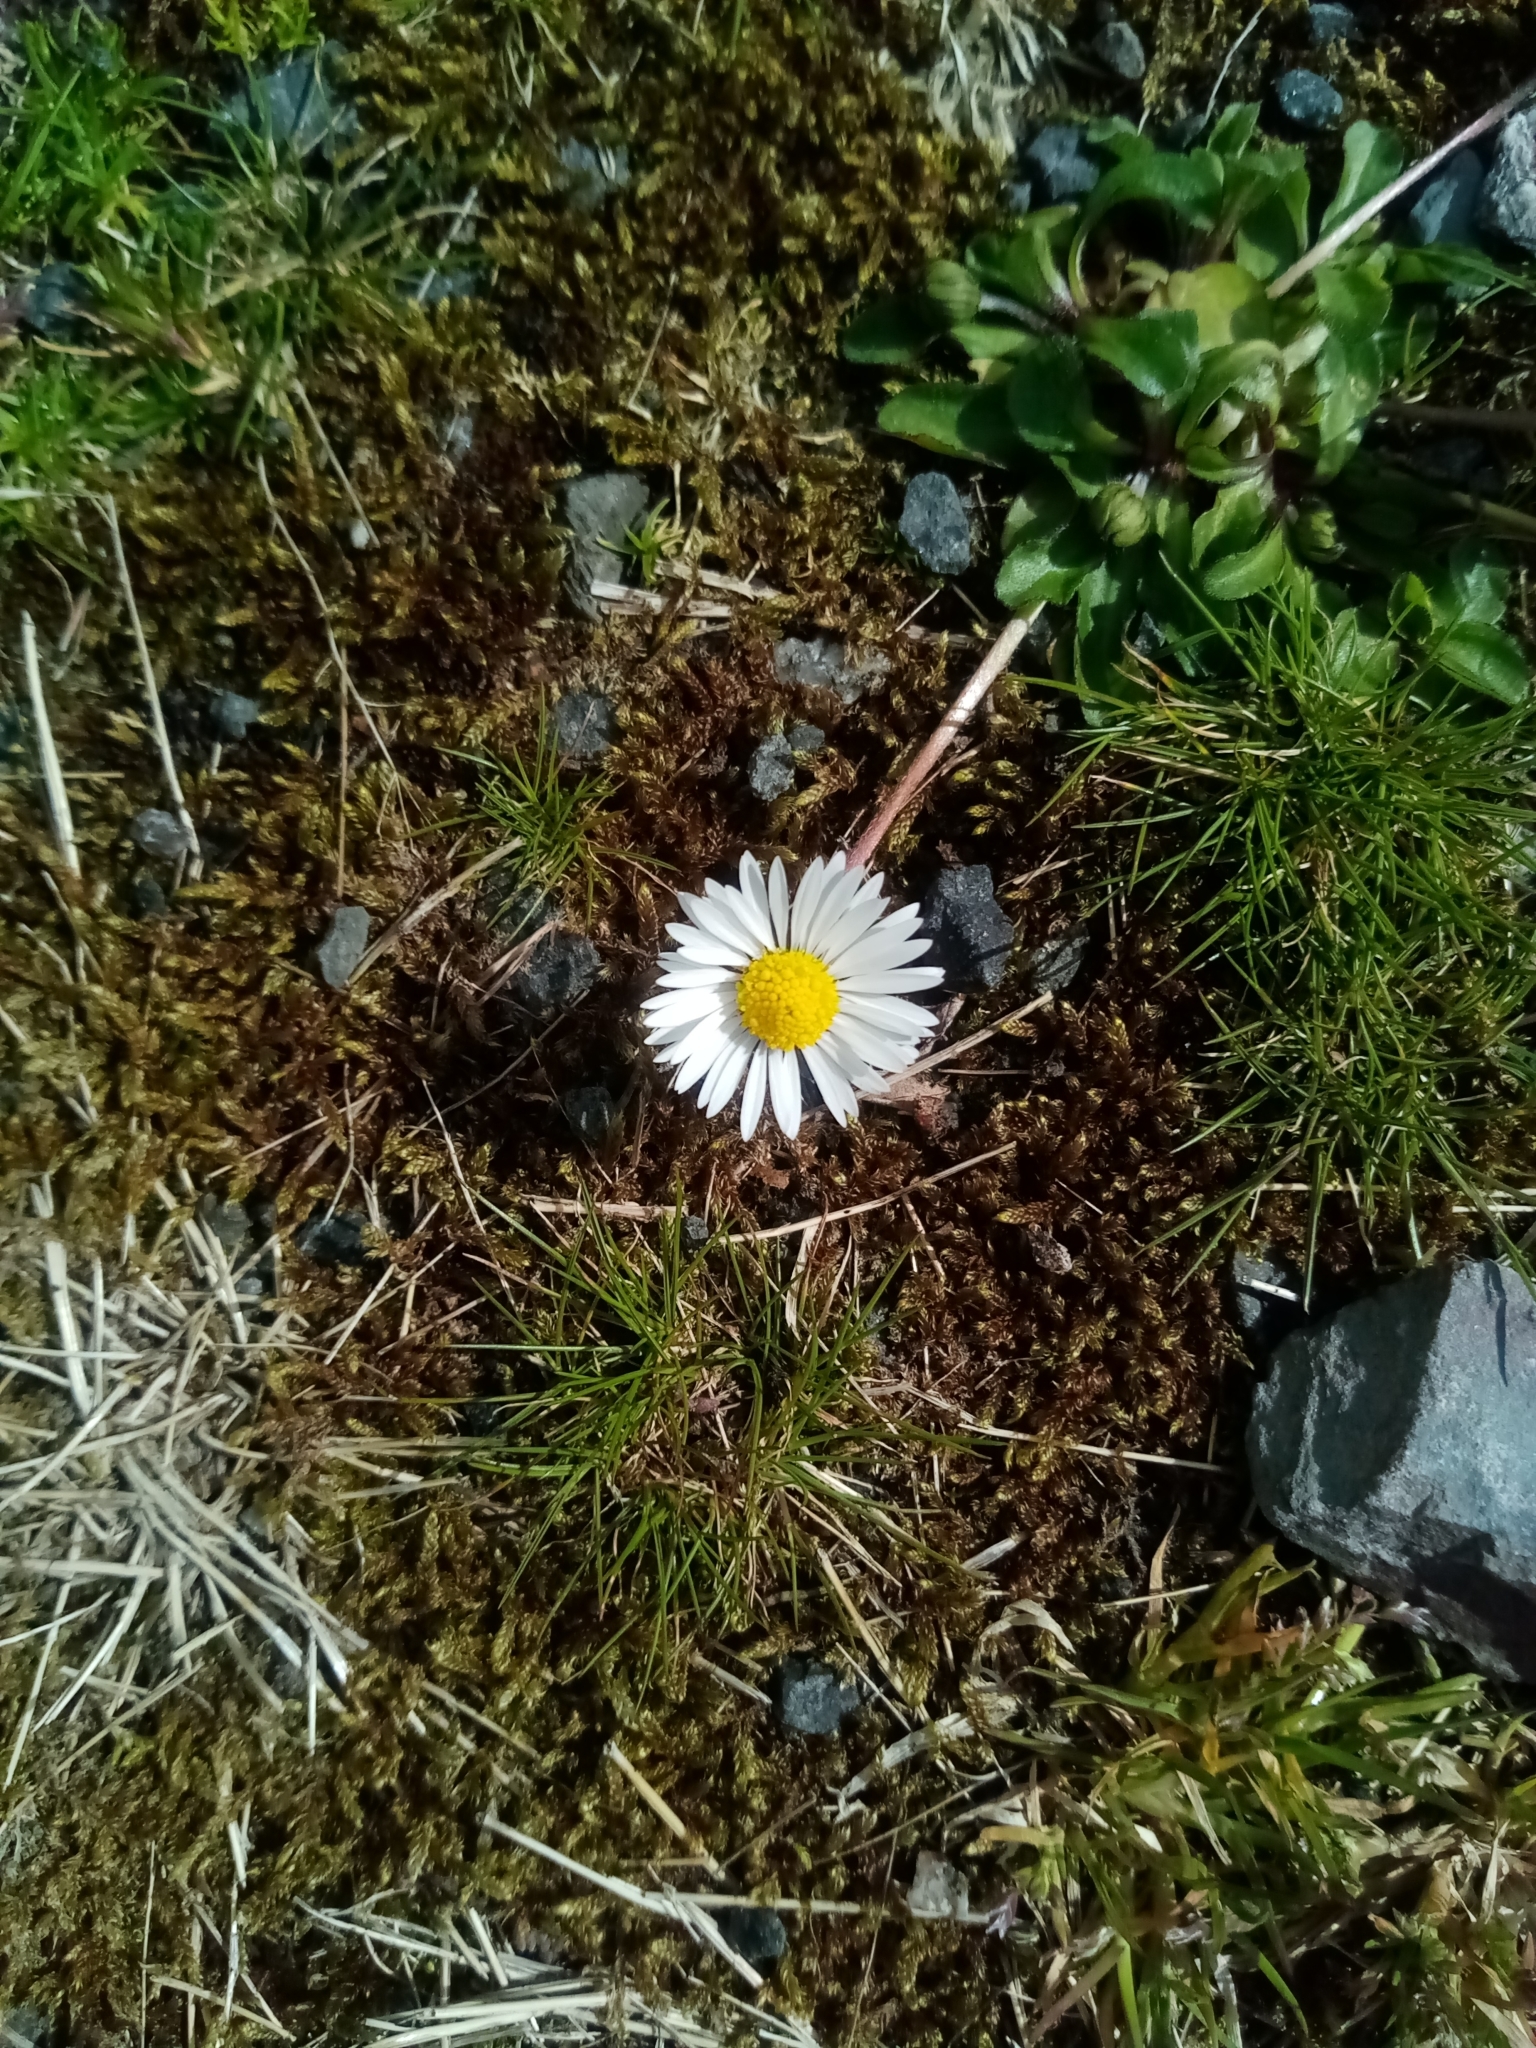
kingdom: Plantae
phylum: Tracheophyta
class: Magnoliopsida
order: Asterales
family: Asteraceae
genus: Bellis
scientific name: Bellis perennis
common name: Lawndaisy
